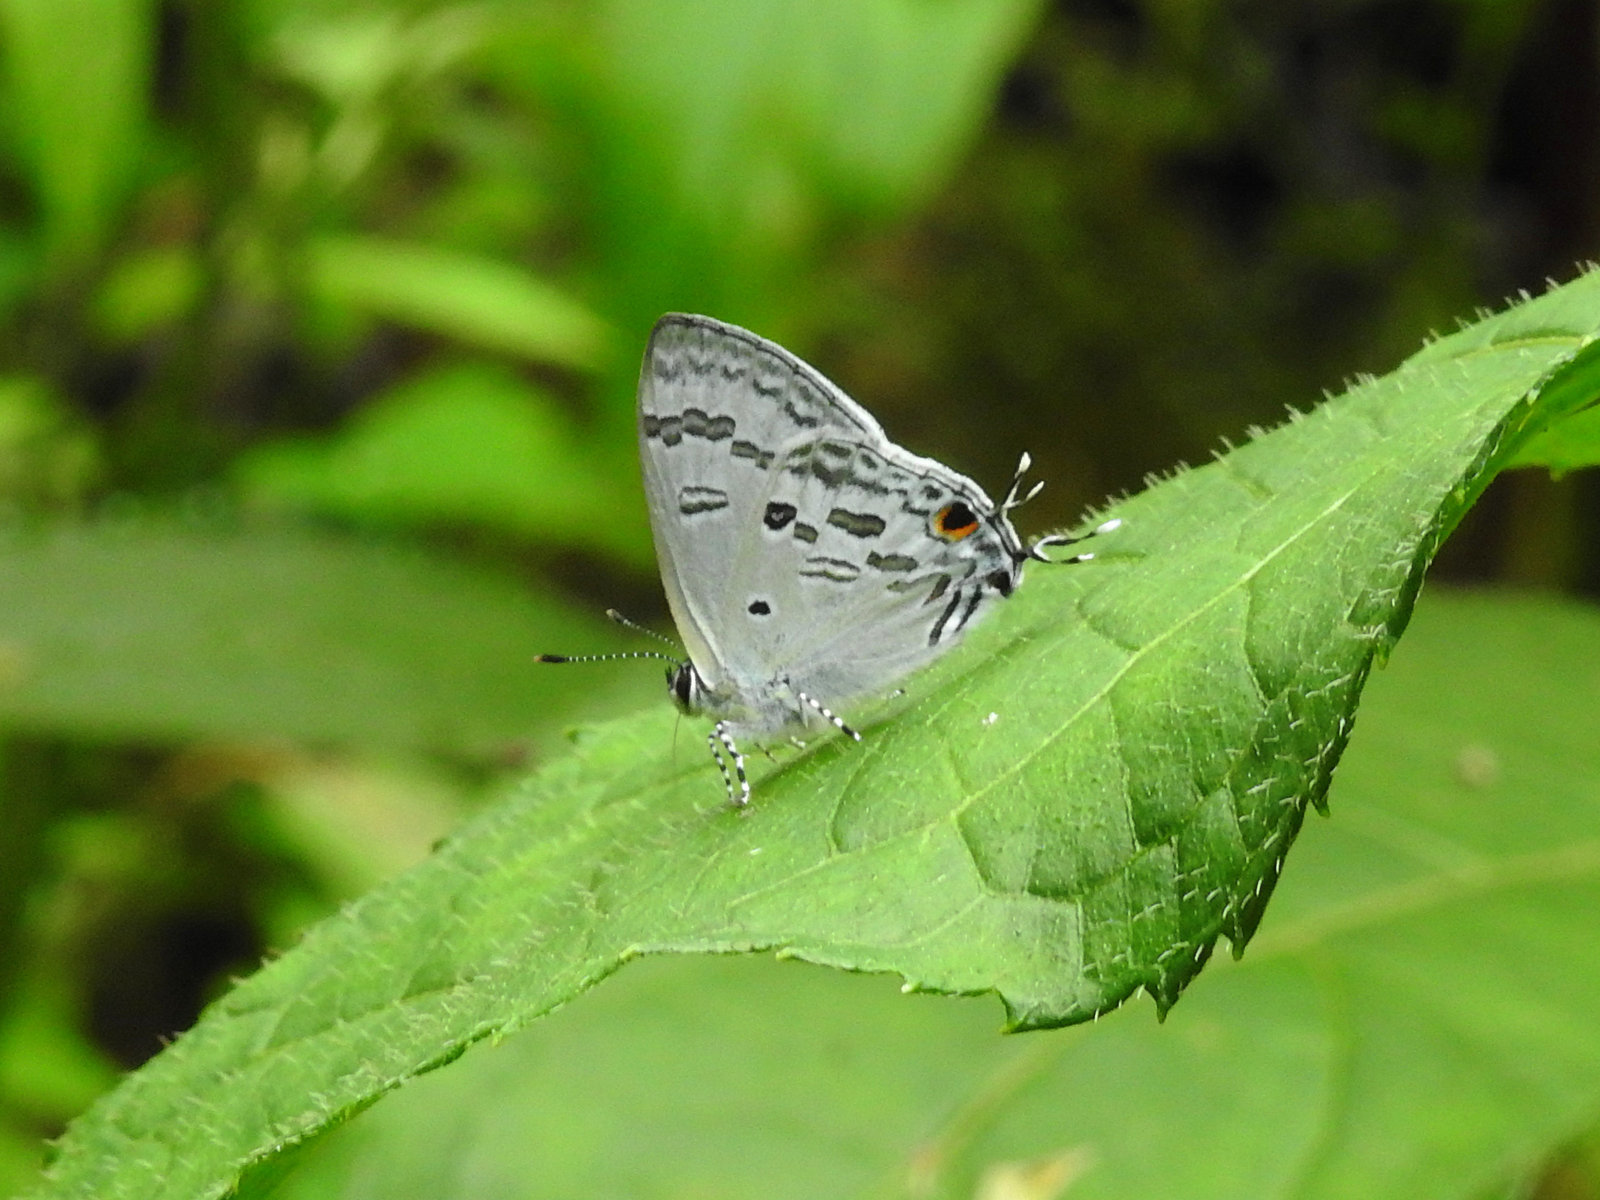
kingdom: Animalia
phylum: Arthropoda
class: Insecta
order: Lepidoptera
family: Lycaenidae
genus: Chliaria
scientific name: Chliaria kina
